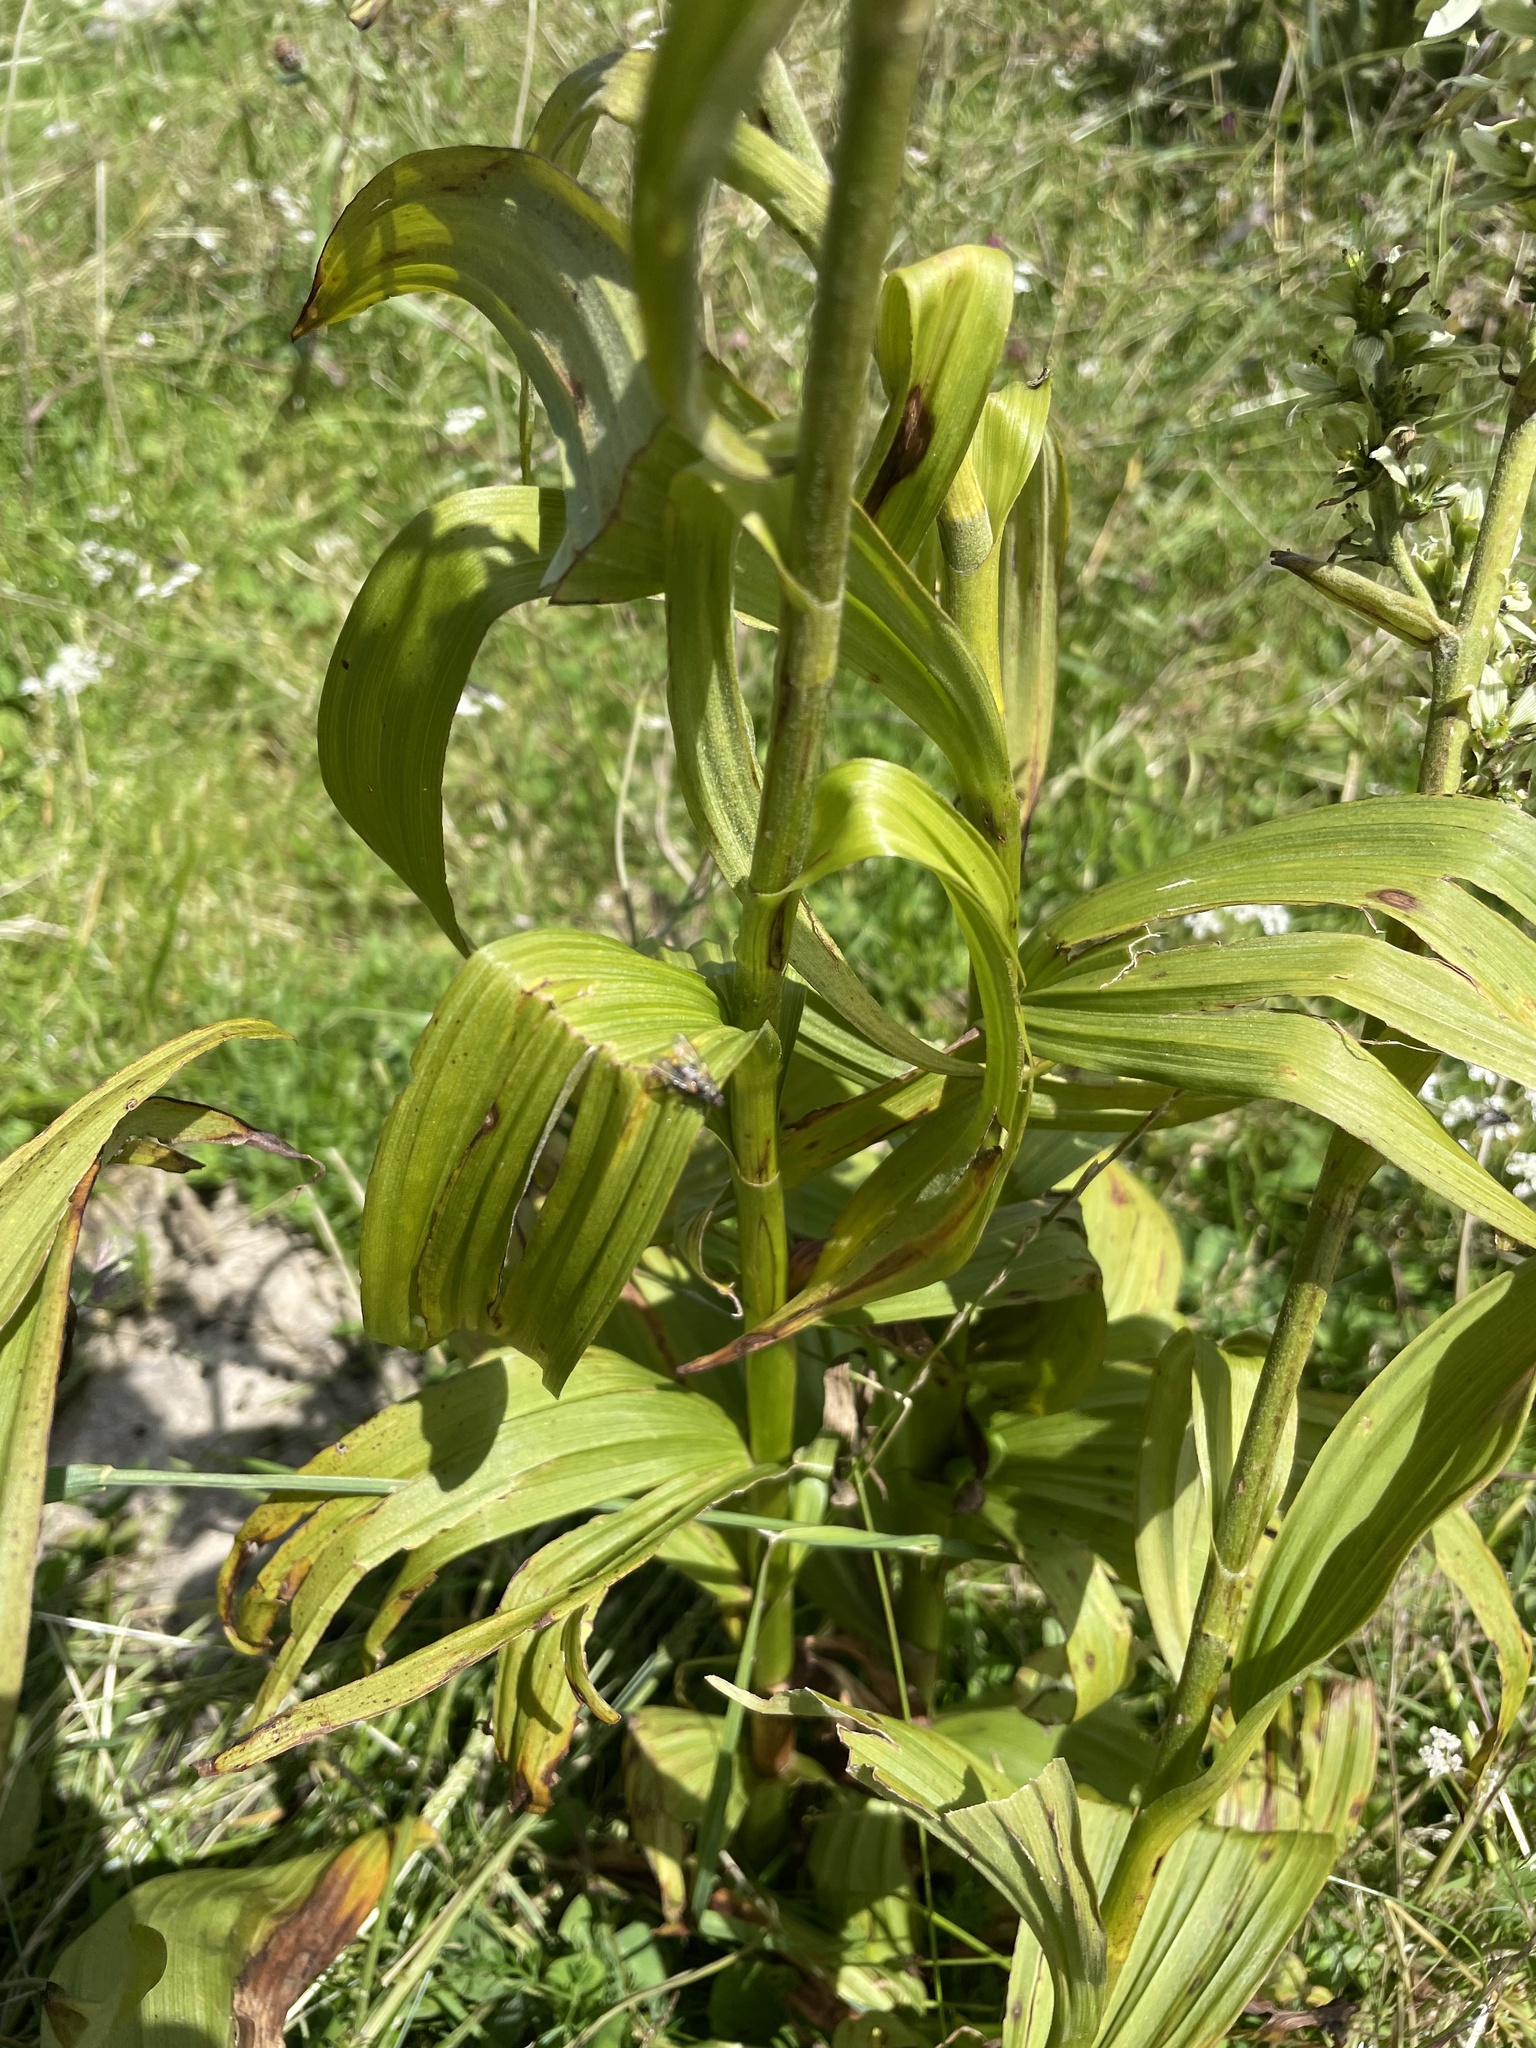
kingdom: Plantae
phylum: Tracheophyta
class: Liliopsida
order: Liliales
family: Melanthiaceae
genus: Veratrum
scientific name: Veratrum album
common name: White veratrum
